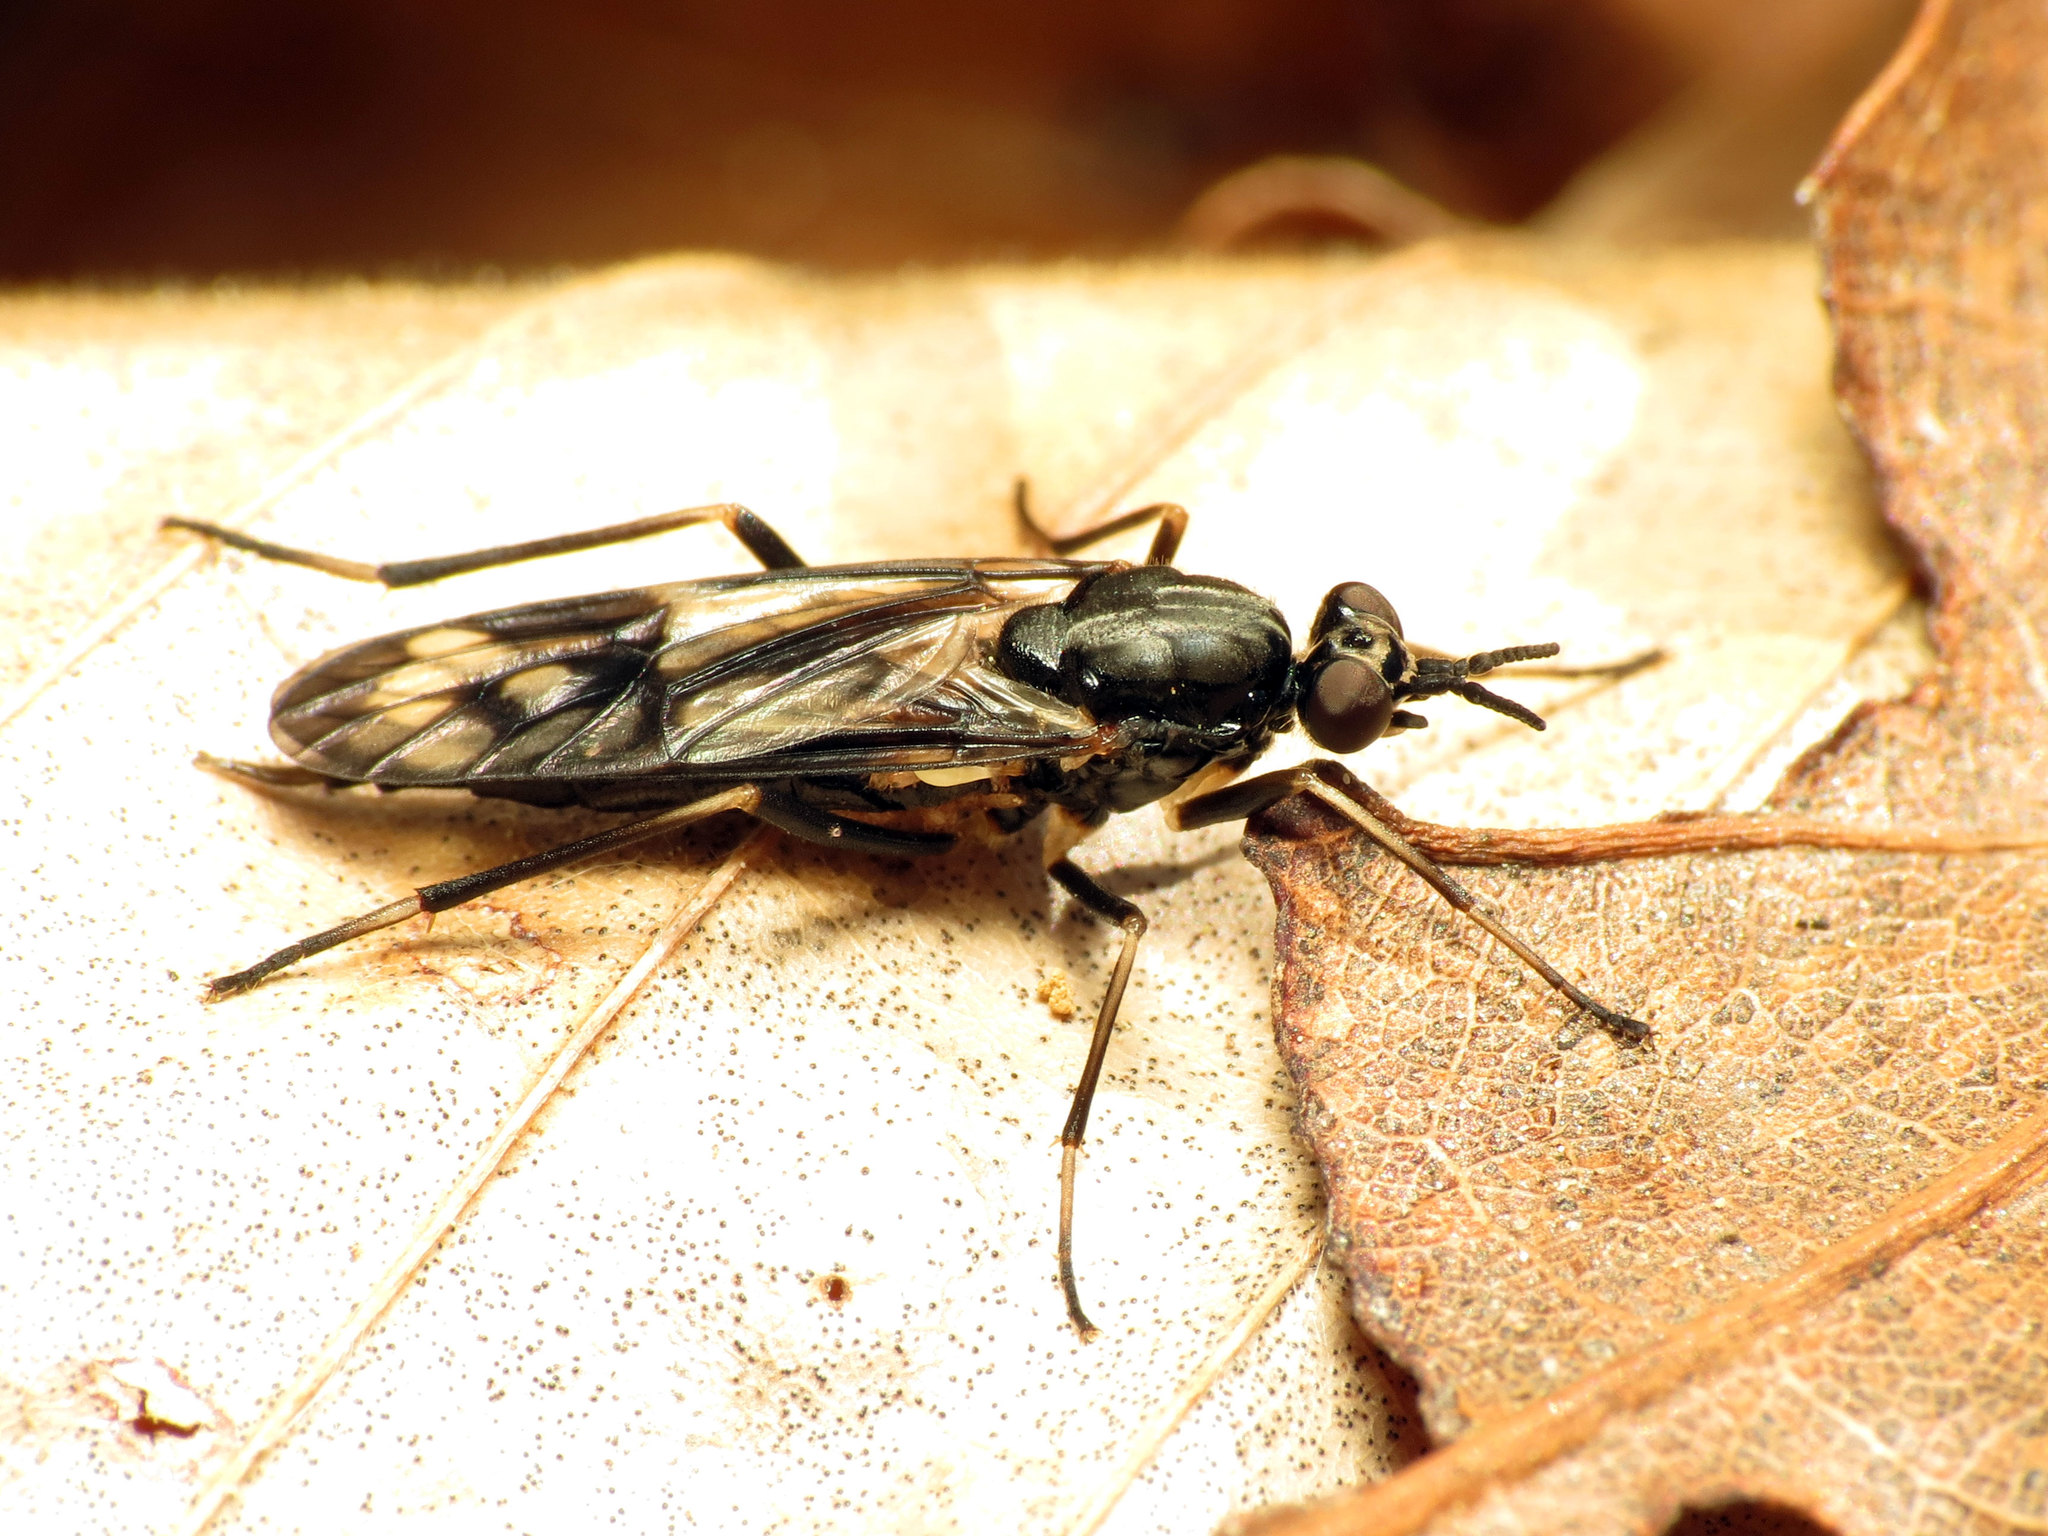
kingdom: Animalia
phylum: Arthropoda
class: Insecta
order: Diptera
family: Xylophagidae
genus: Xylophagus
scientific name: Xylophagus lugens
